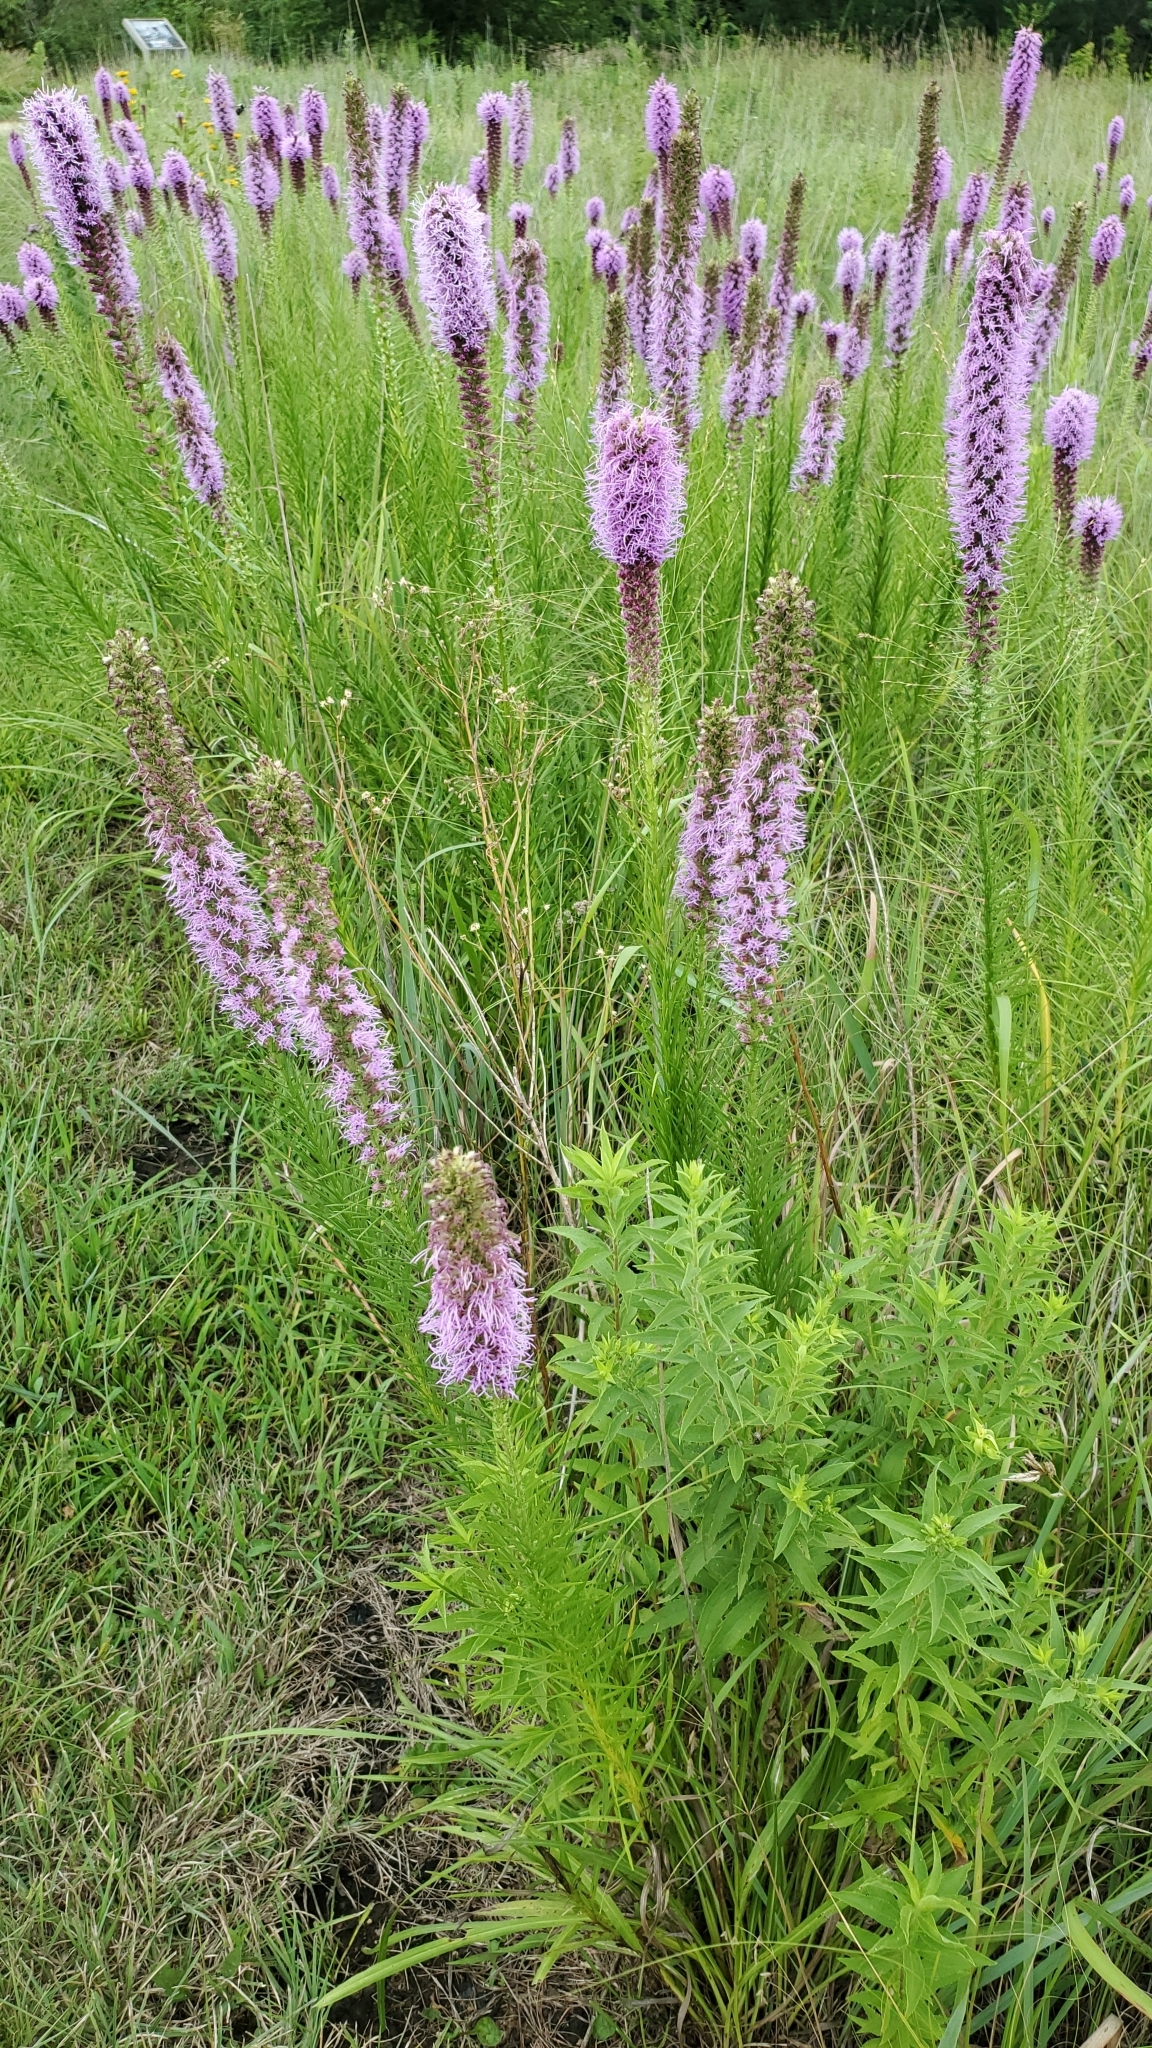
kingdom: Plantae
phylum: Tracheophyta
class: Magnoliopsida
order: Asterales
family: Asteraceae
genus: Liatris
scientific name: Liatris pycnostachya
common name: Cattail gayfeather
